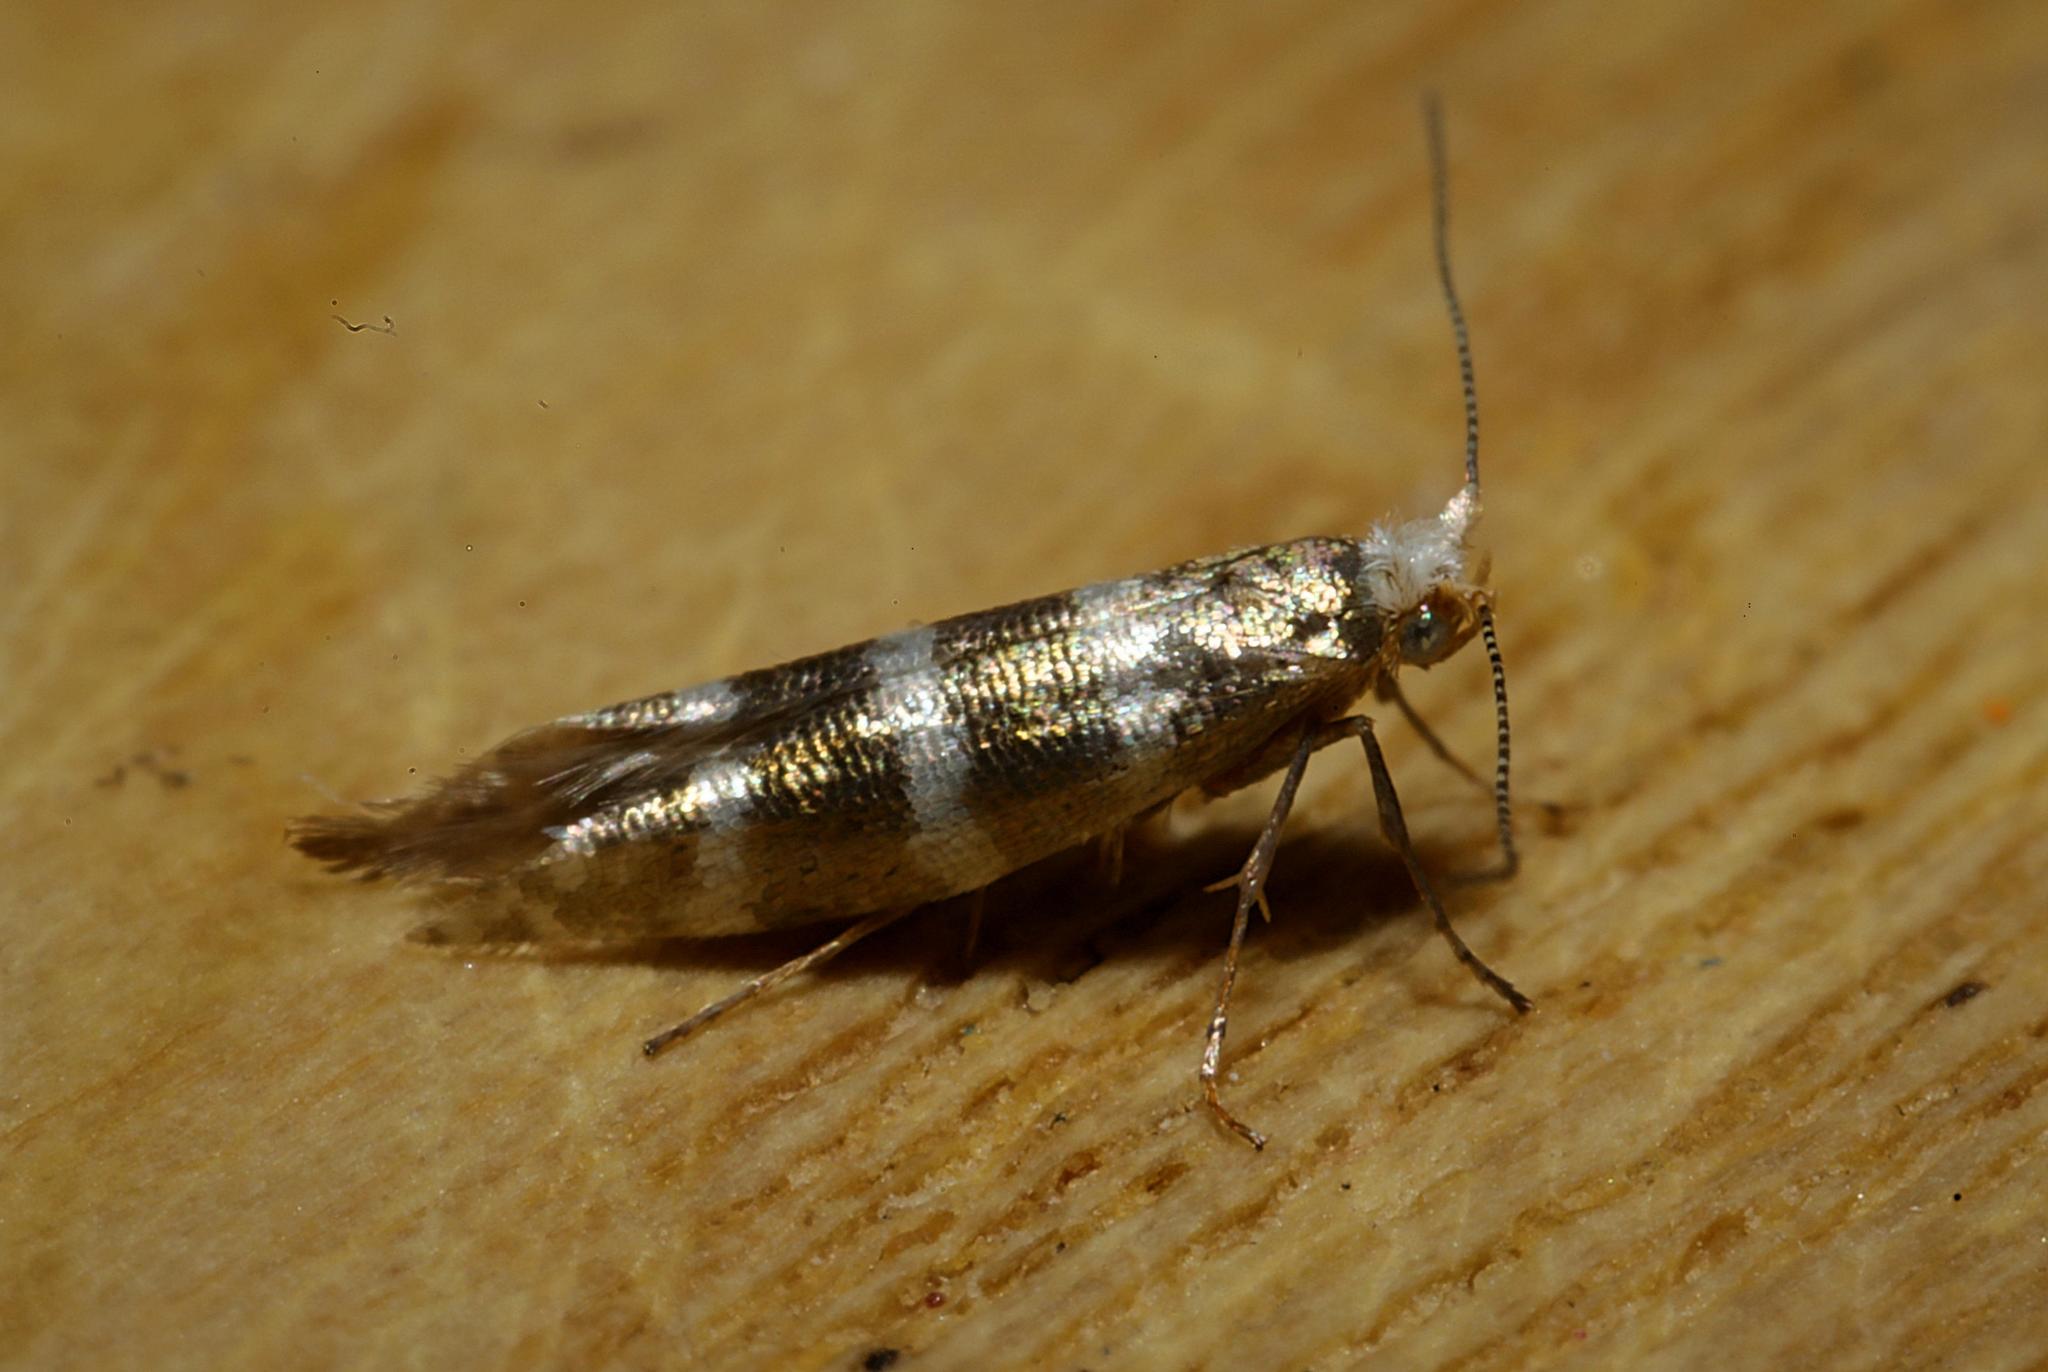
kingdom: Animalia
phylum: Arthropoda
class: Insecta
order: Lepidoptera
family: Argyresthiidae
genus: Argyresthia
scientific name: Argyresthia trifasciata
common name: Triple-barred argent
